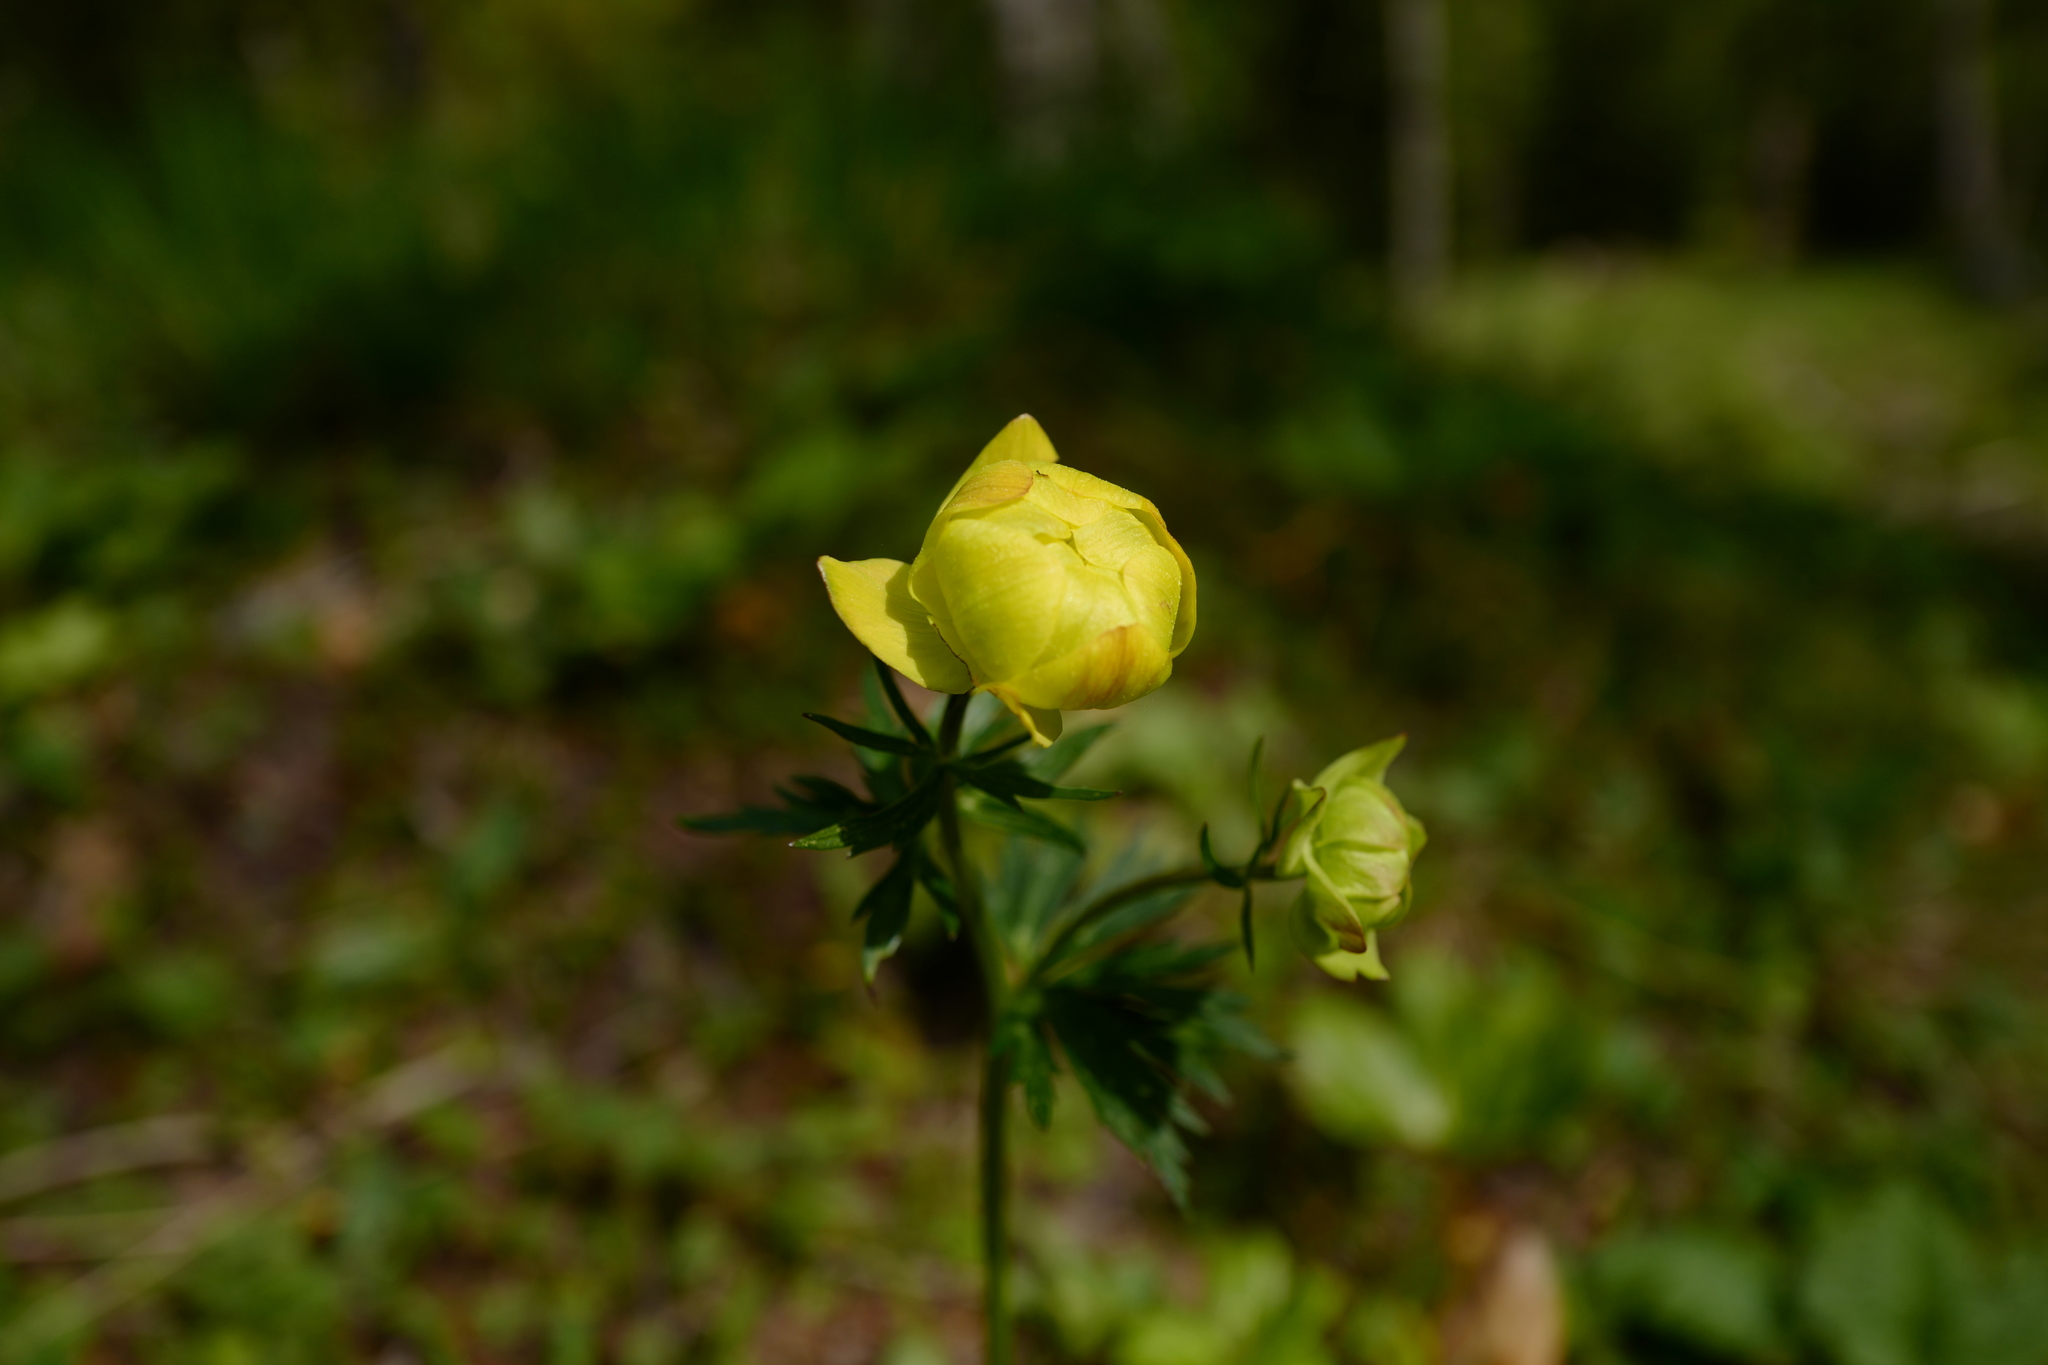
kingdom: Plantae
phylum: Tracheophyta
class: Magnoliopsida
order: Ranunculales
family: Ranunculaceae
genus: Trollius
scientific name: Trollius europaeus
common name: European globeflower
